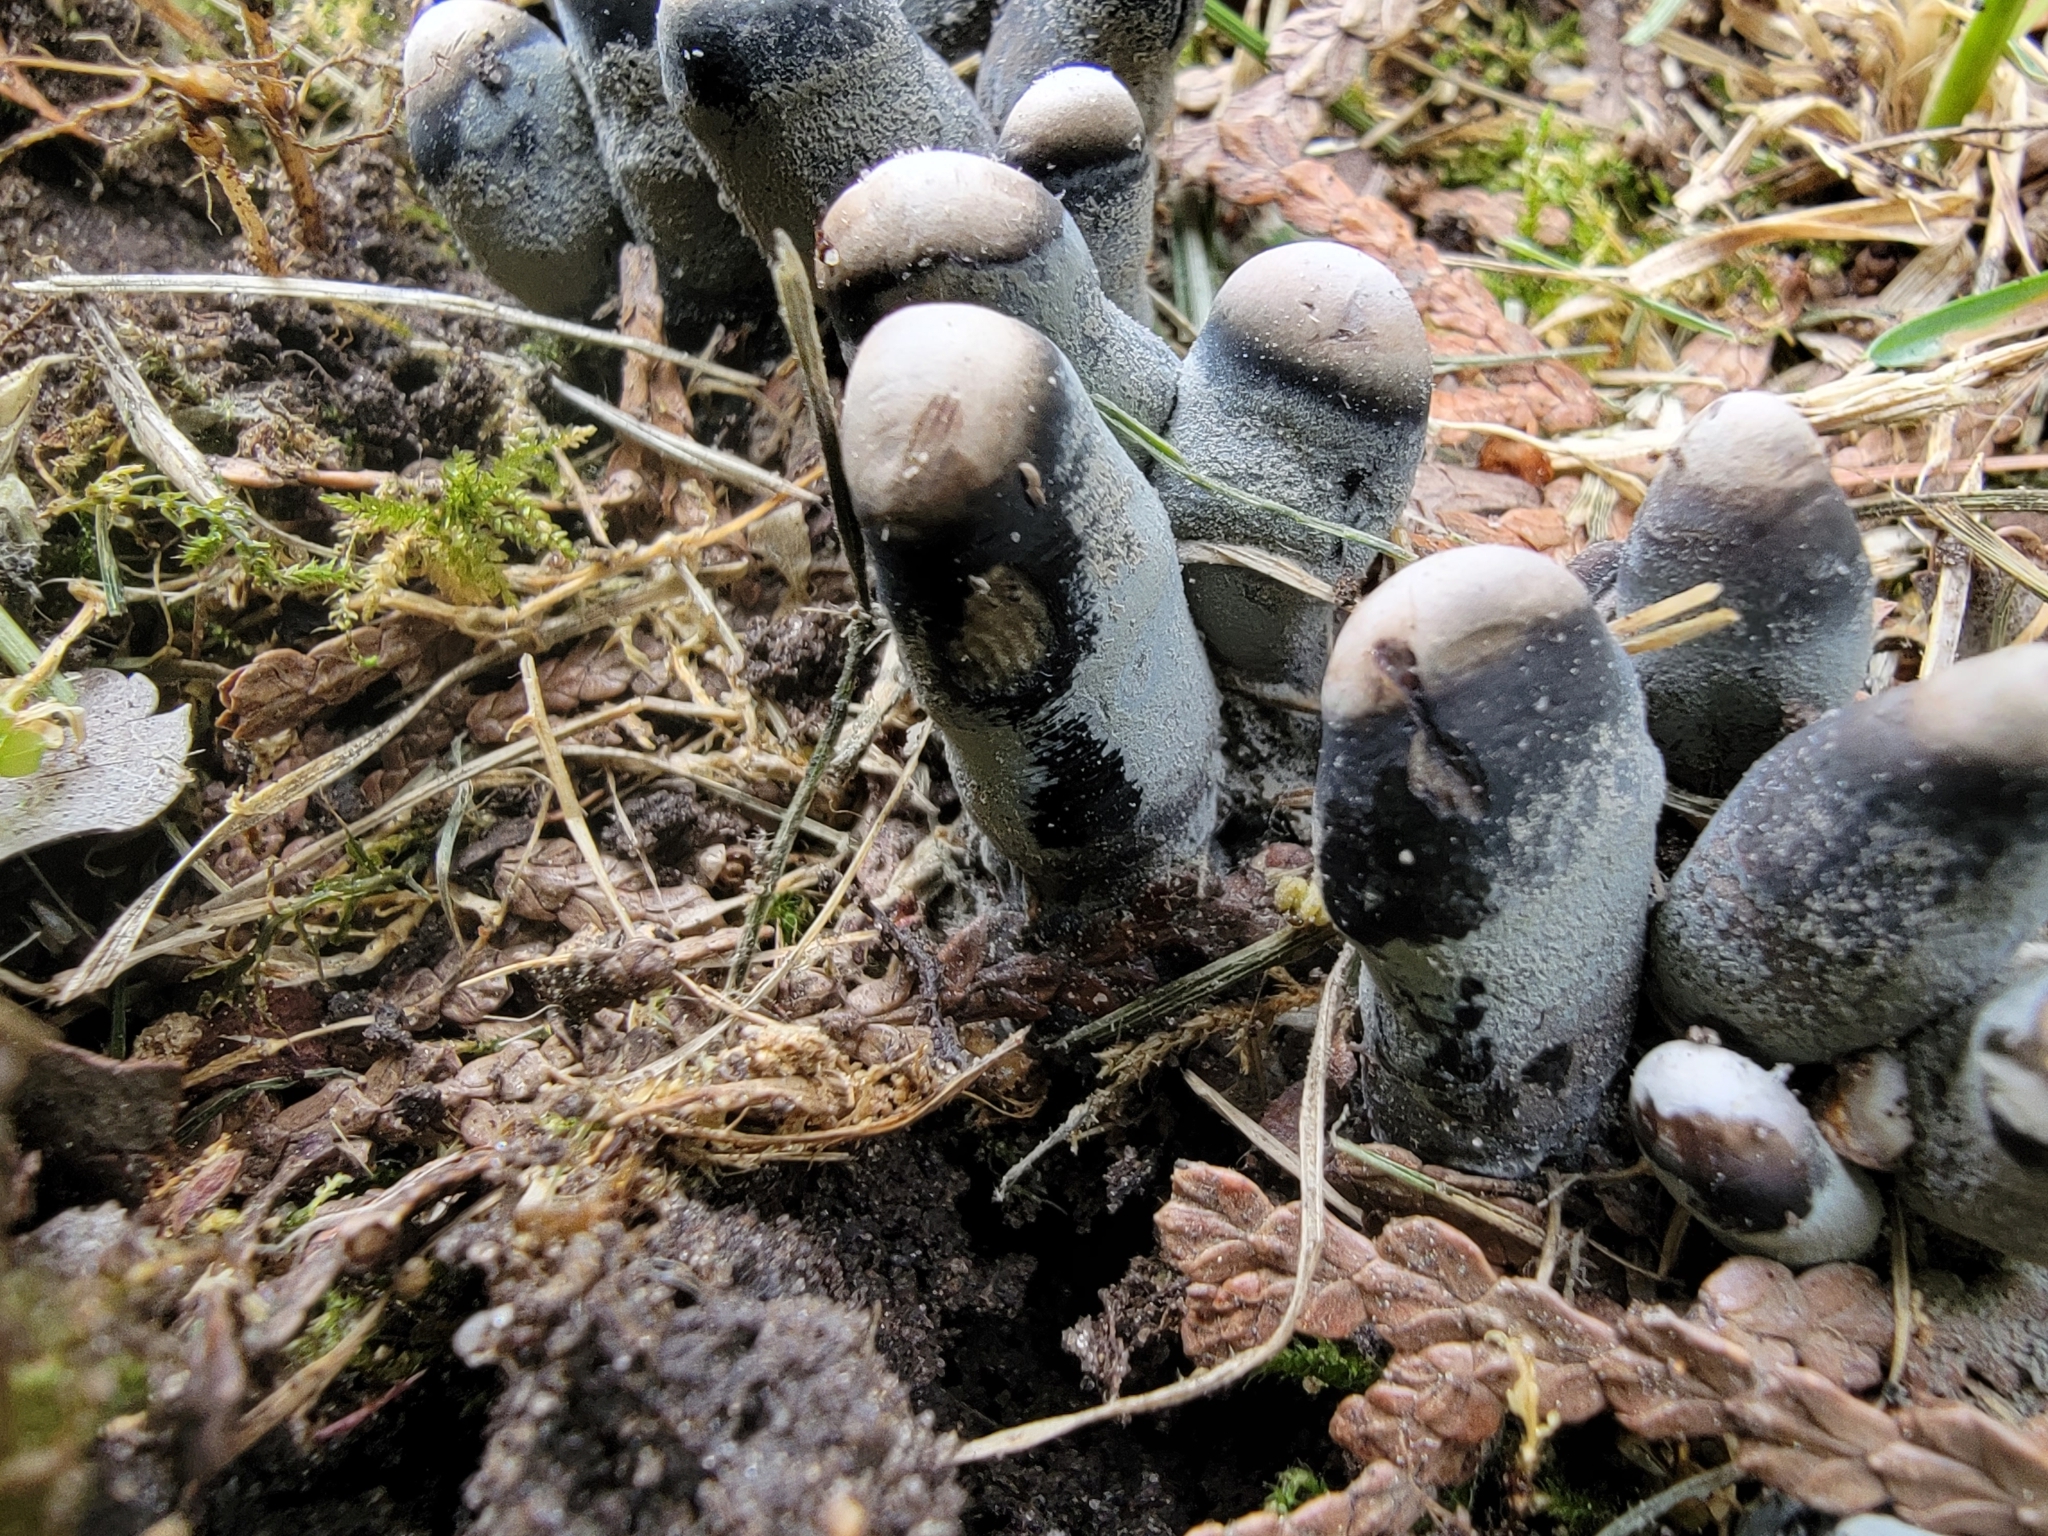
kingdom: Fungi
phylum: Ascomycota
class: Sordariomycetes
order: Xylariales
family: Xylariaceae
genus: Xylaria
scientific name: Xylaria polymorpha
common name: Dead man's fingers
